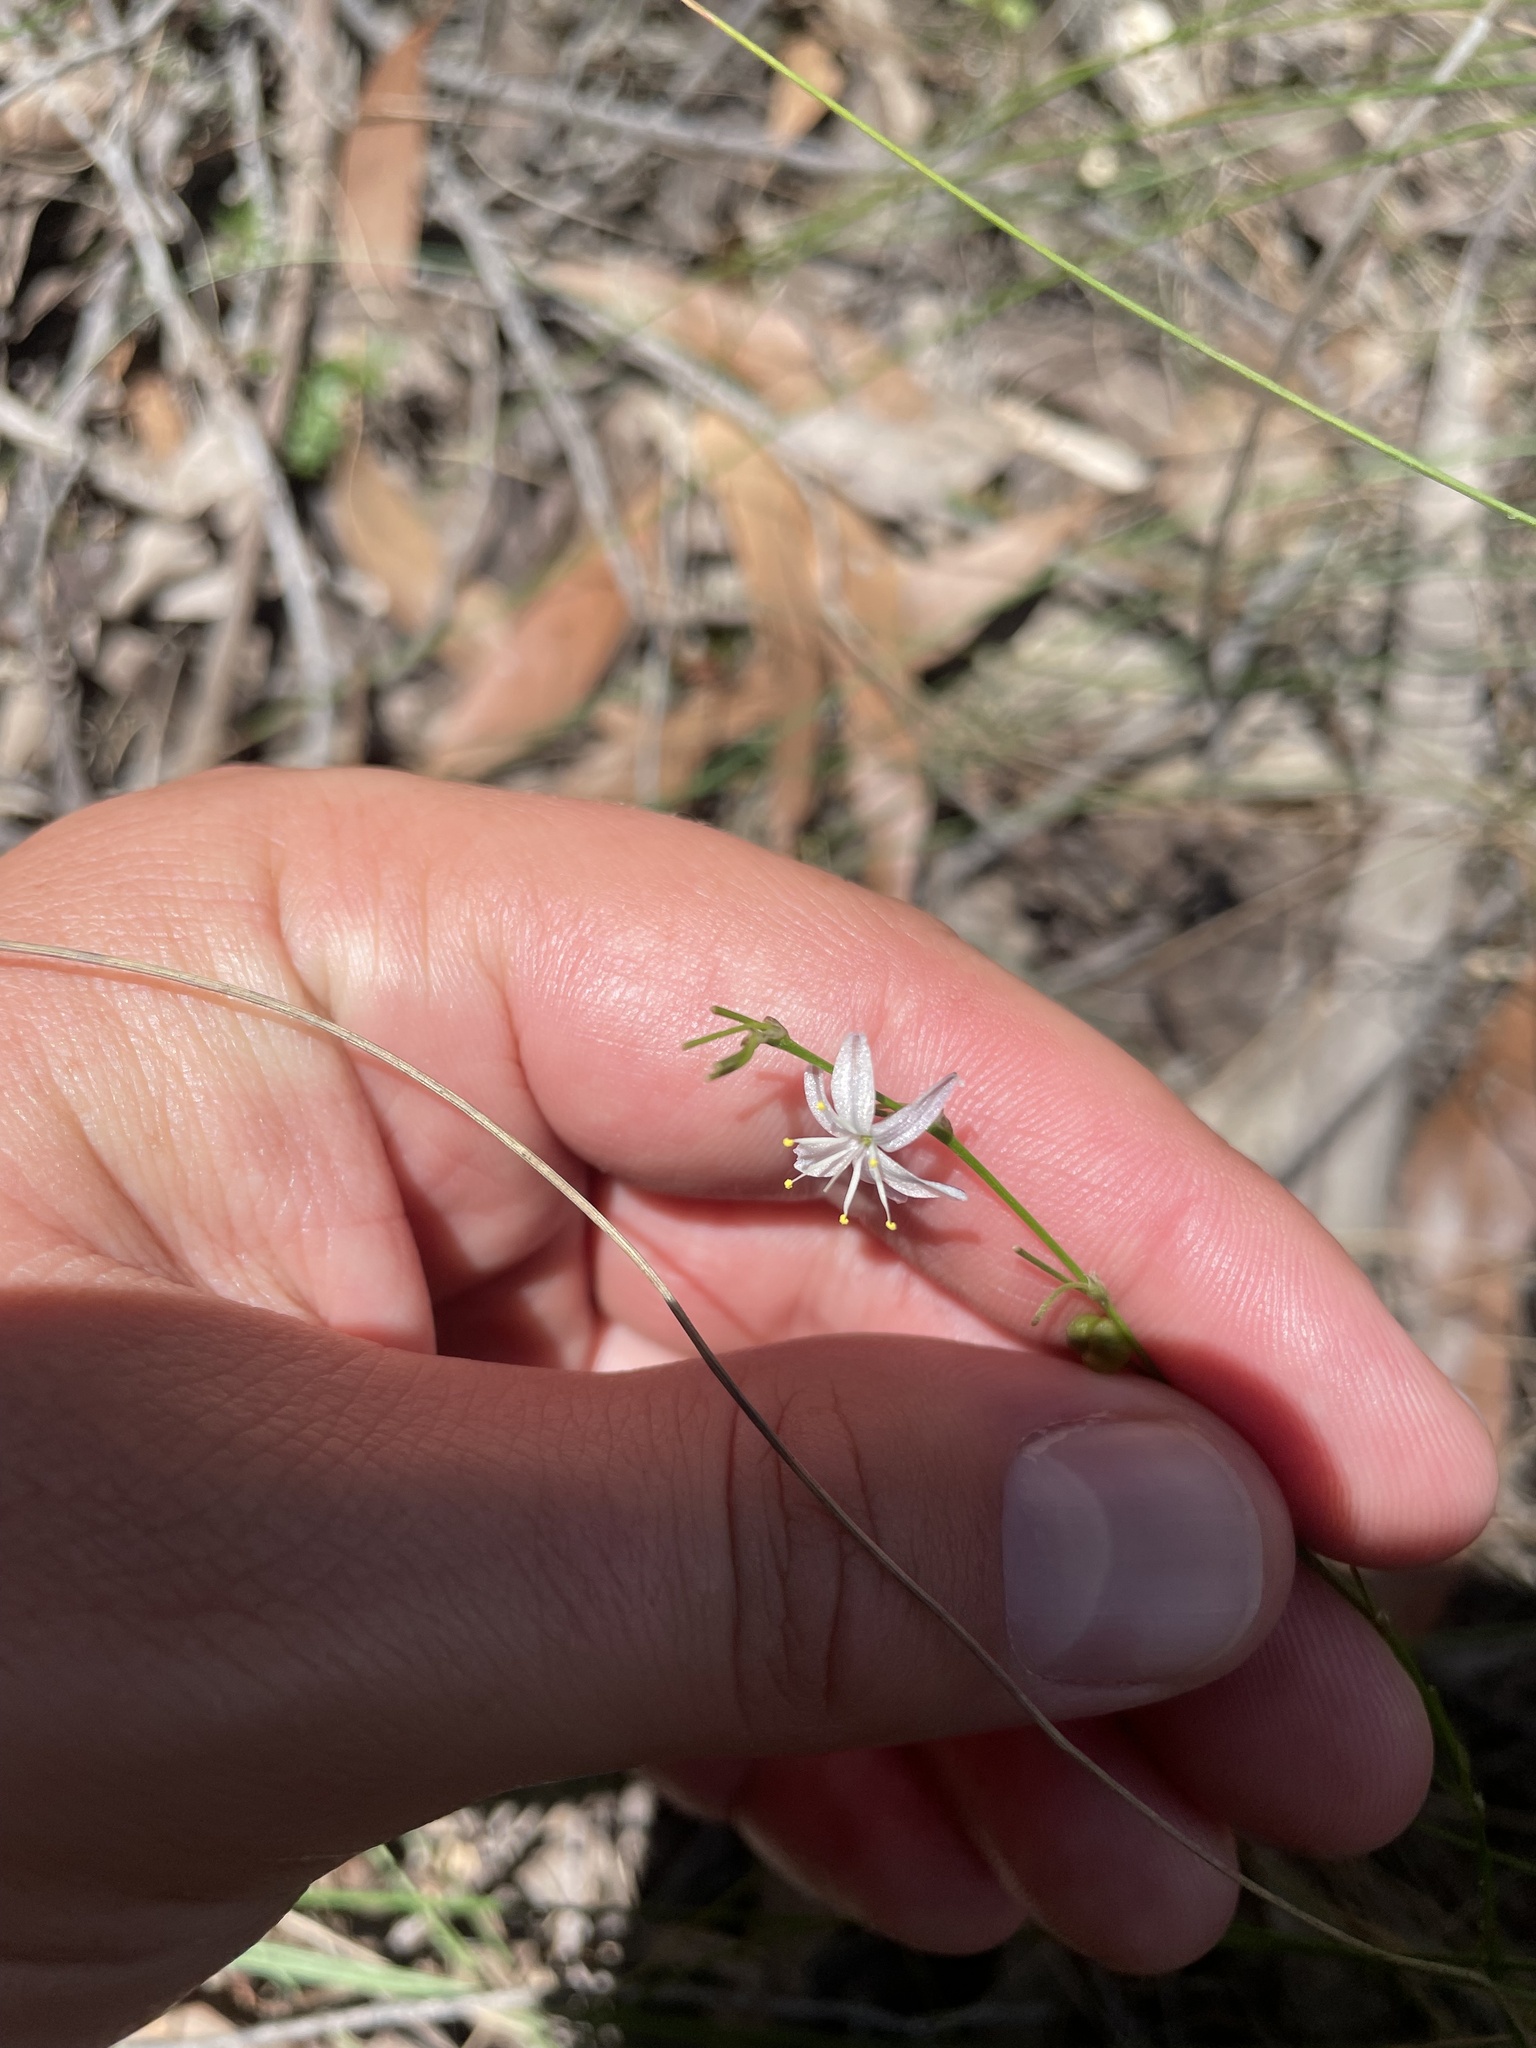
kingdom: Plantae
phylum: Tracheophyta
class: Liliopsida
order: Asparagales
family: Asphodelaceae
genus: Caesia
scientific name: Caesia parviflora
